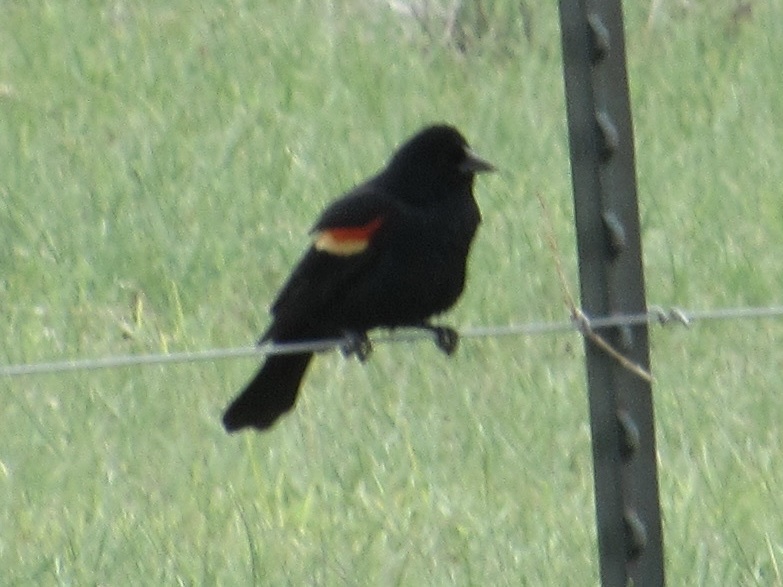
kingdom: Animalia
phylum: Chordata
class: Aves
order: Passeriformes
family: Icteridae
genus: Agelaius
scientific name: Agelaius phoeniceus
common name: Red-winged blackbird
